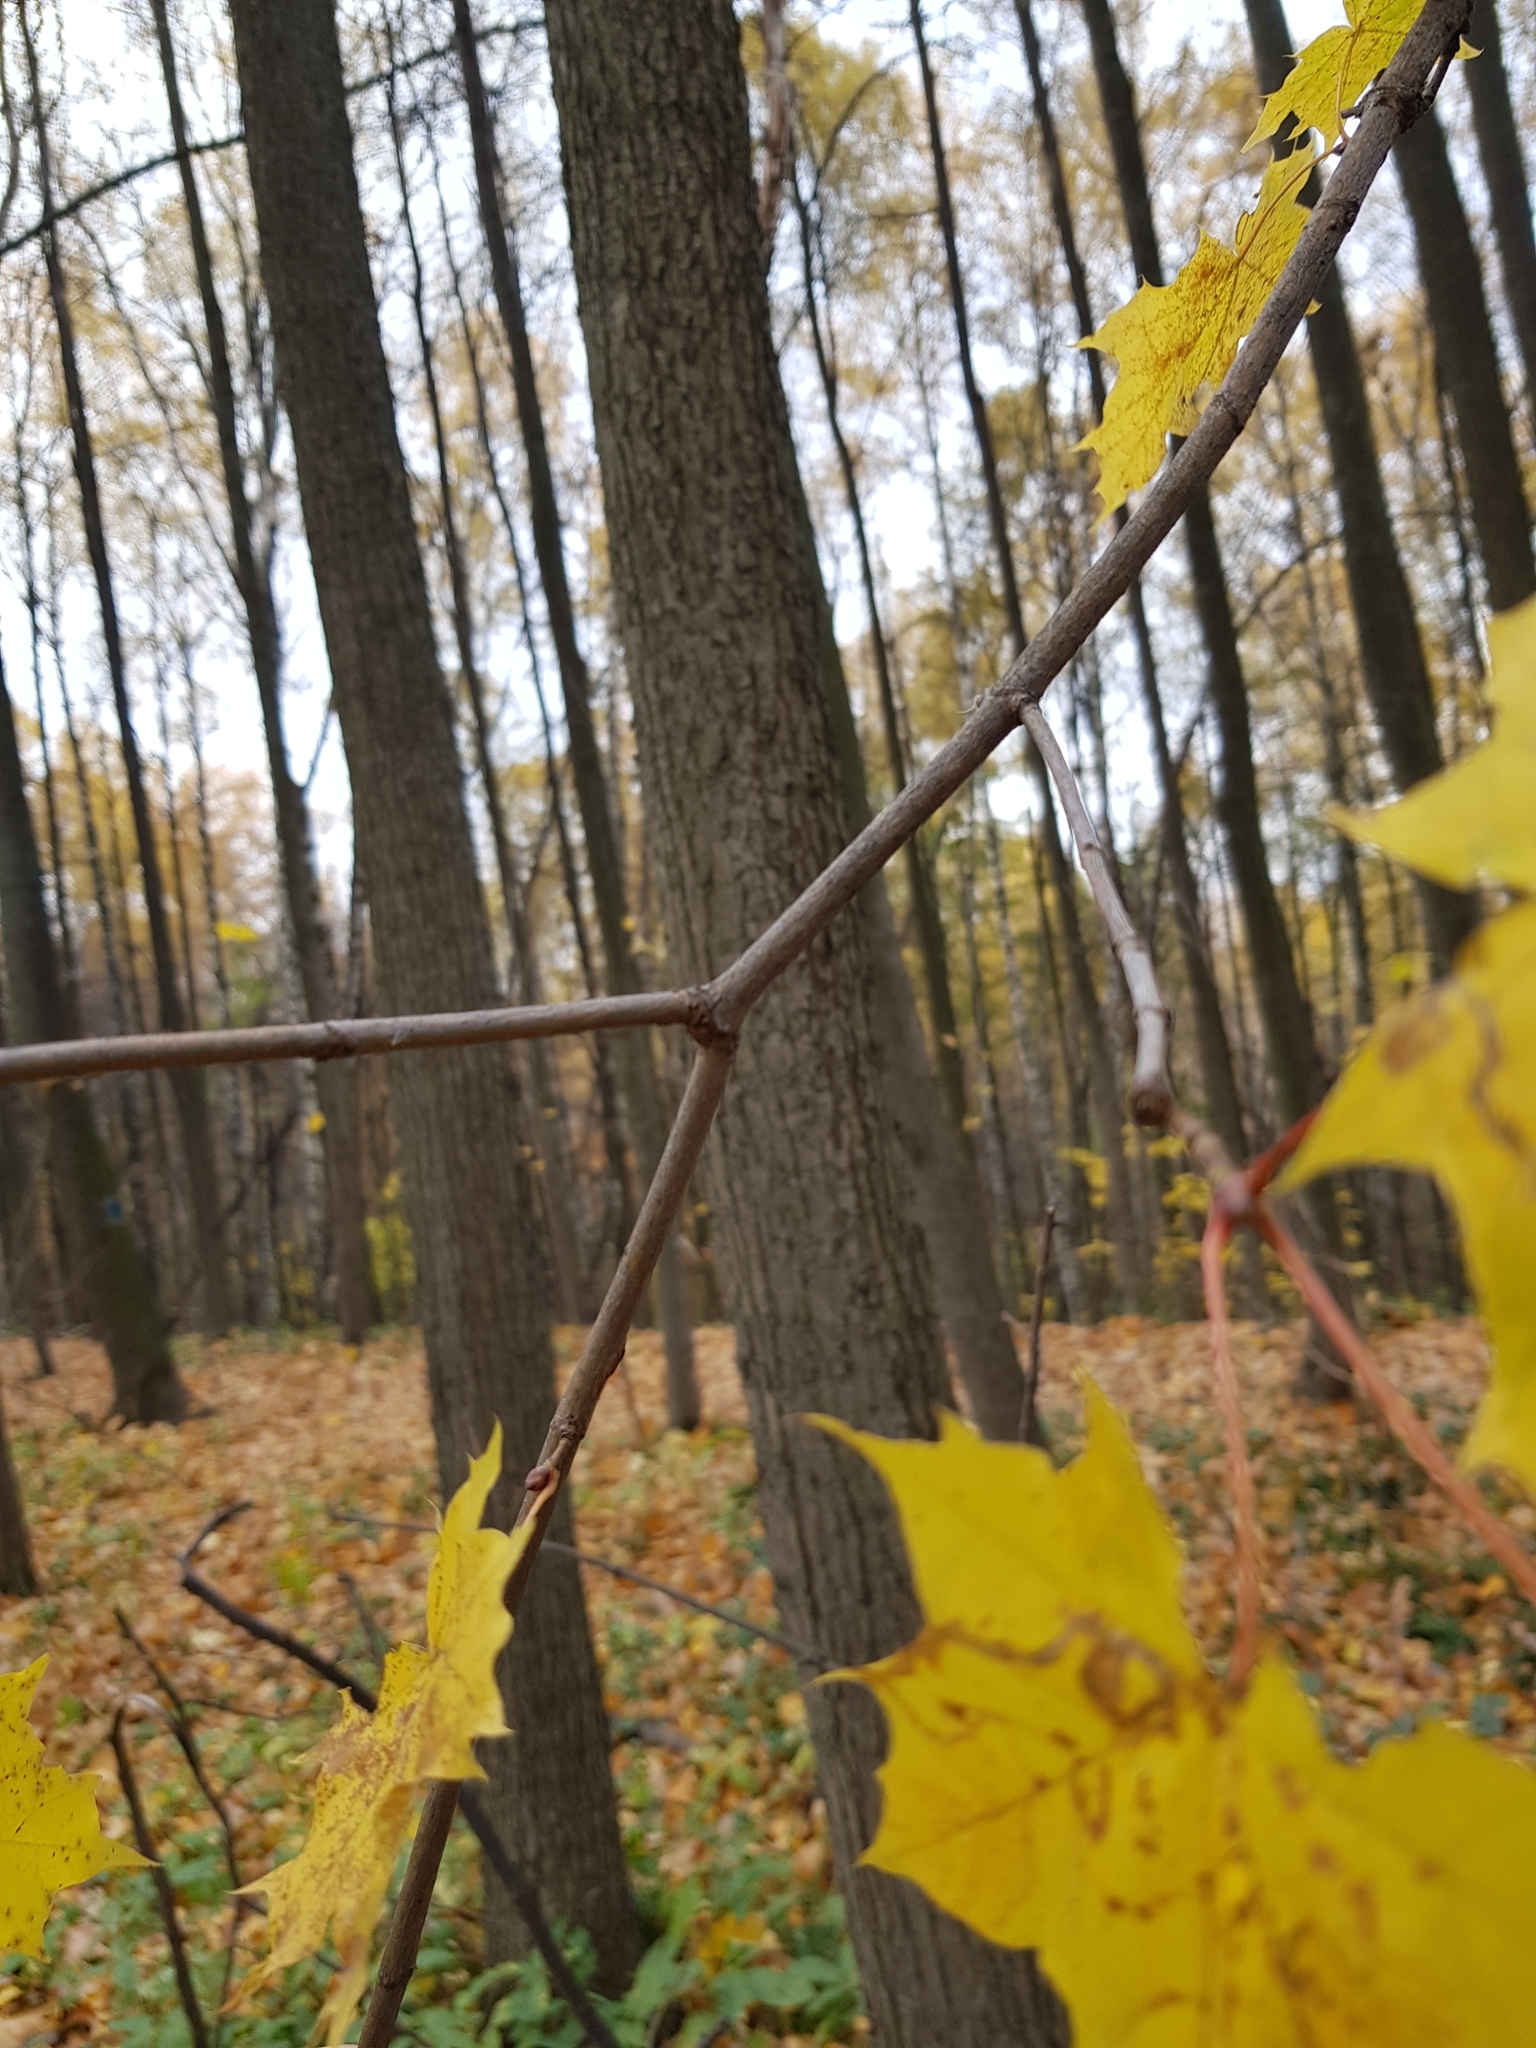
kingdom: Plantae
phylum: Tracheophyta
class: Magnoliopsida
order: Sapindales
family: Sapindaceae
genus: Acer
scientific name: Acer platanoides
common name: Norway maple
